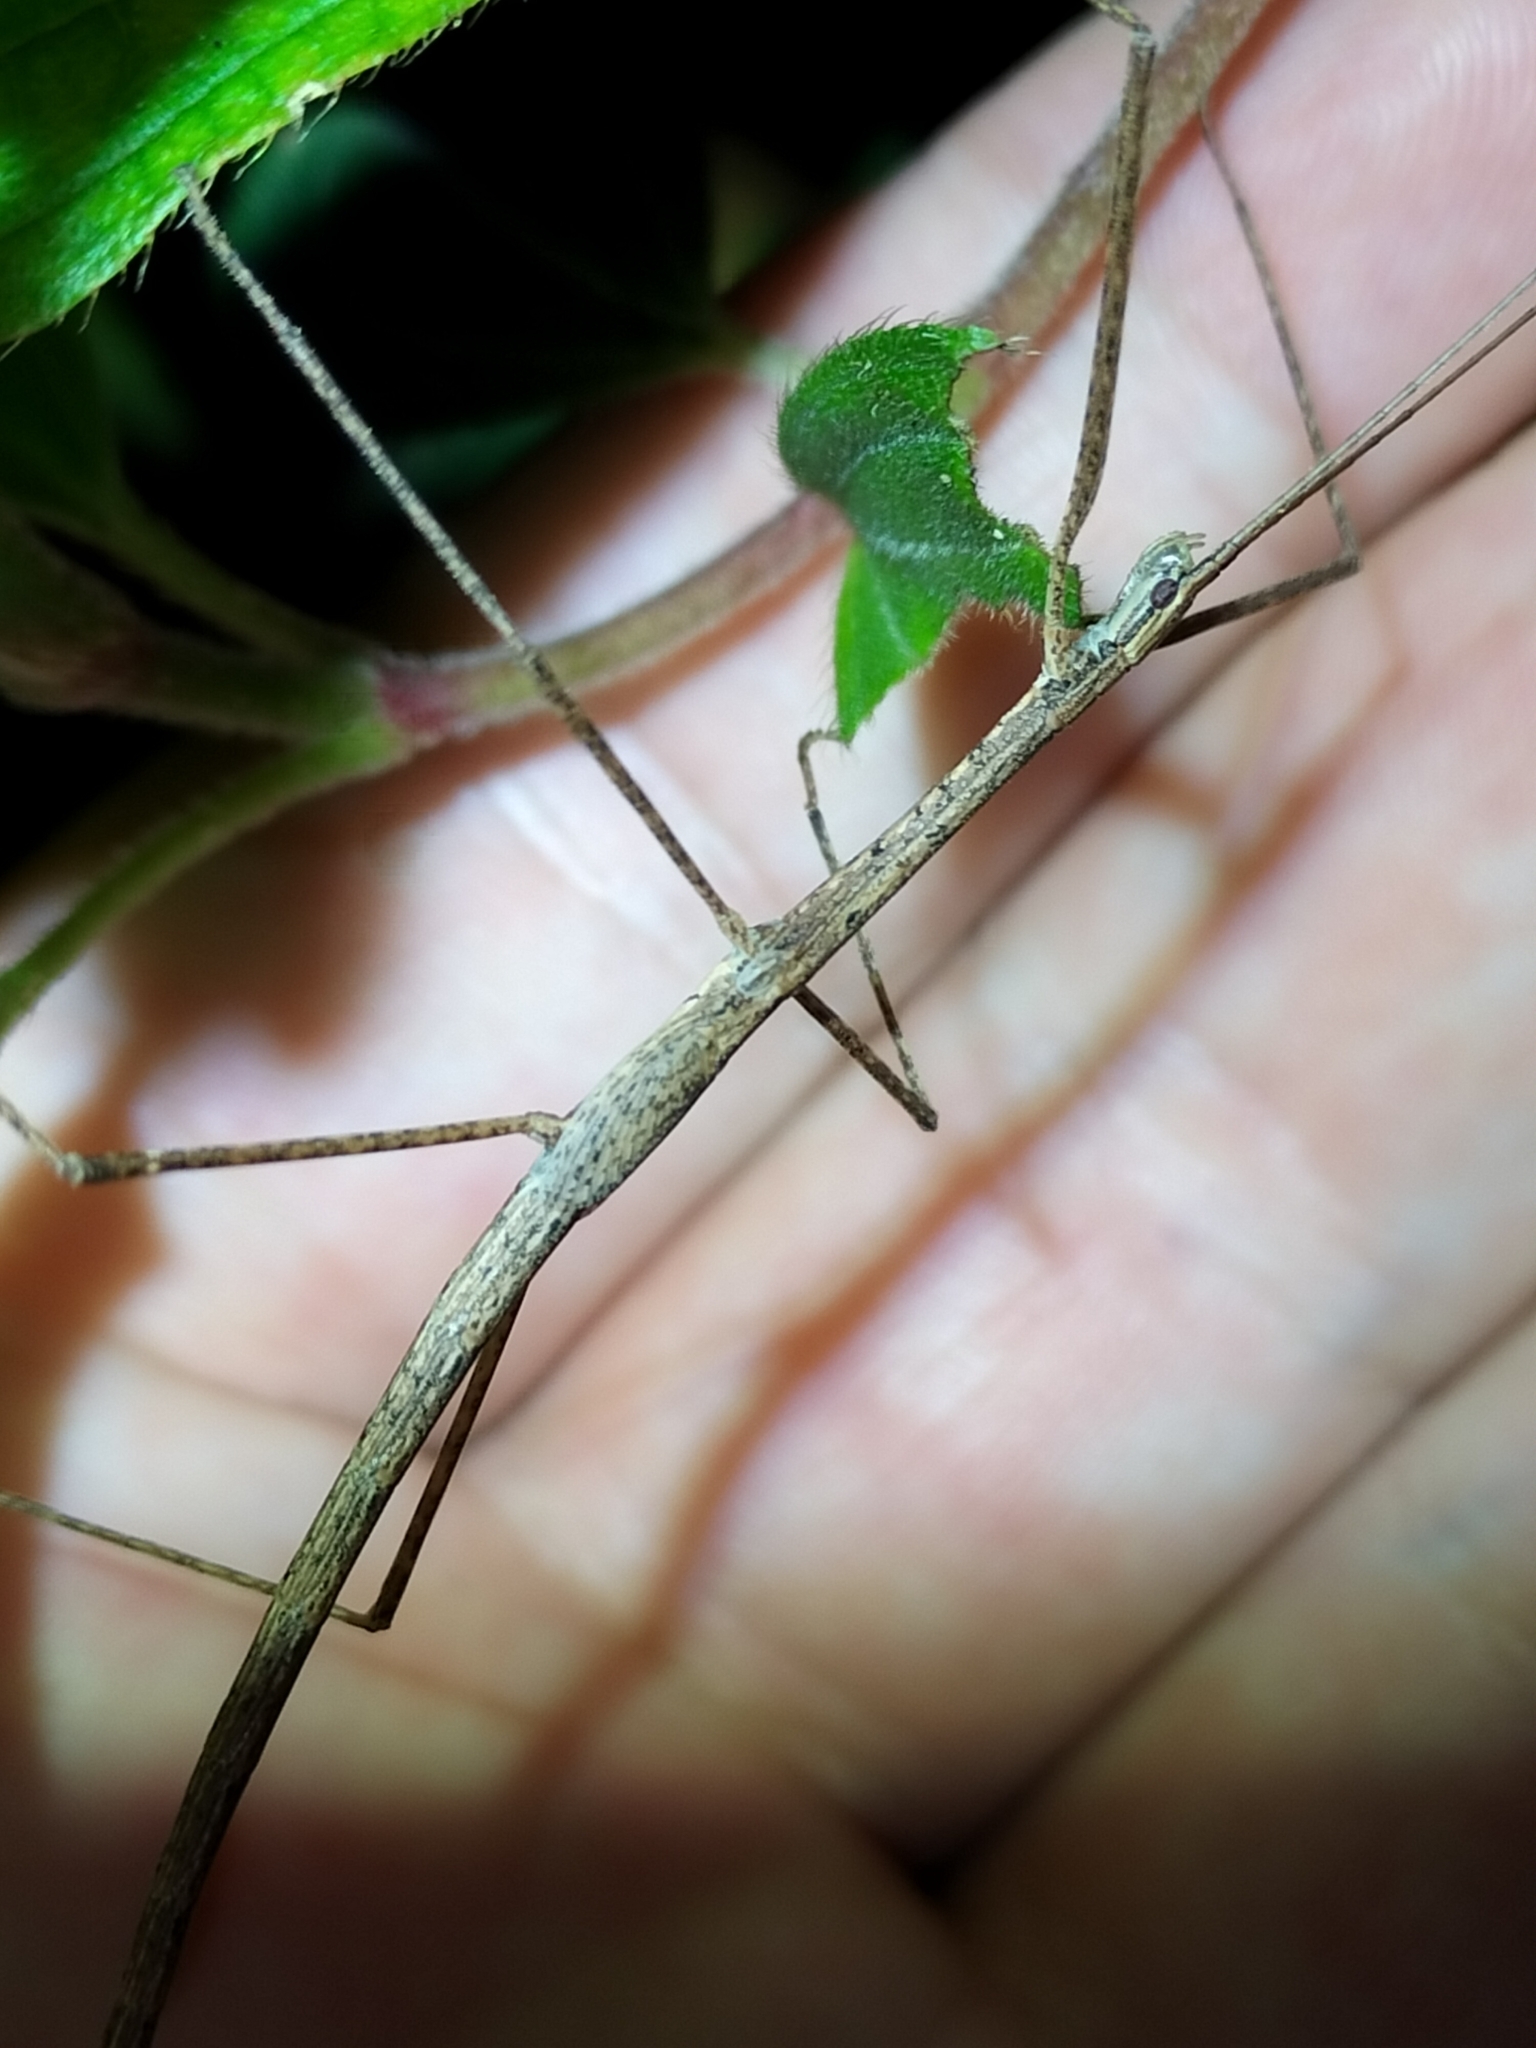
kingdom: Animalia
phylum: Arthropoda
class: Insecta
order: Phasmida
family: Lonchodidae
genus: Sipyloidea
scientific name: Sipyloidea larryi
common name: Hurricane larry stick-insect
